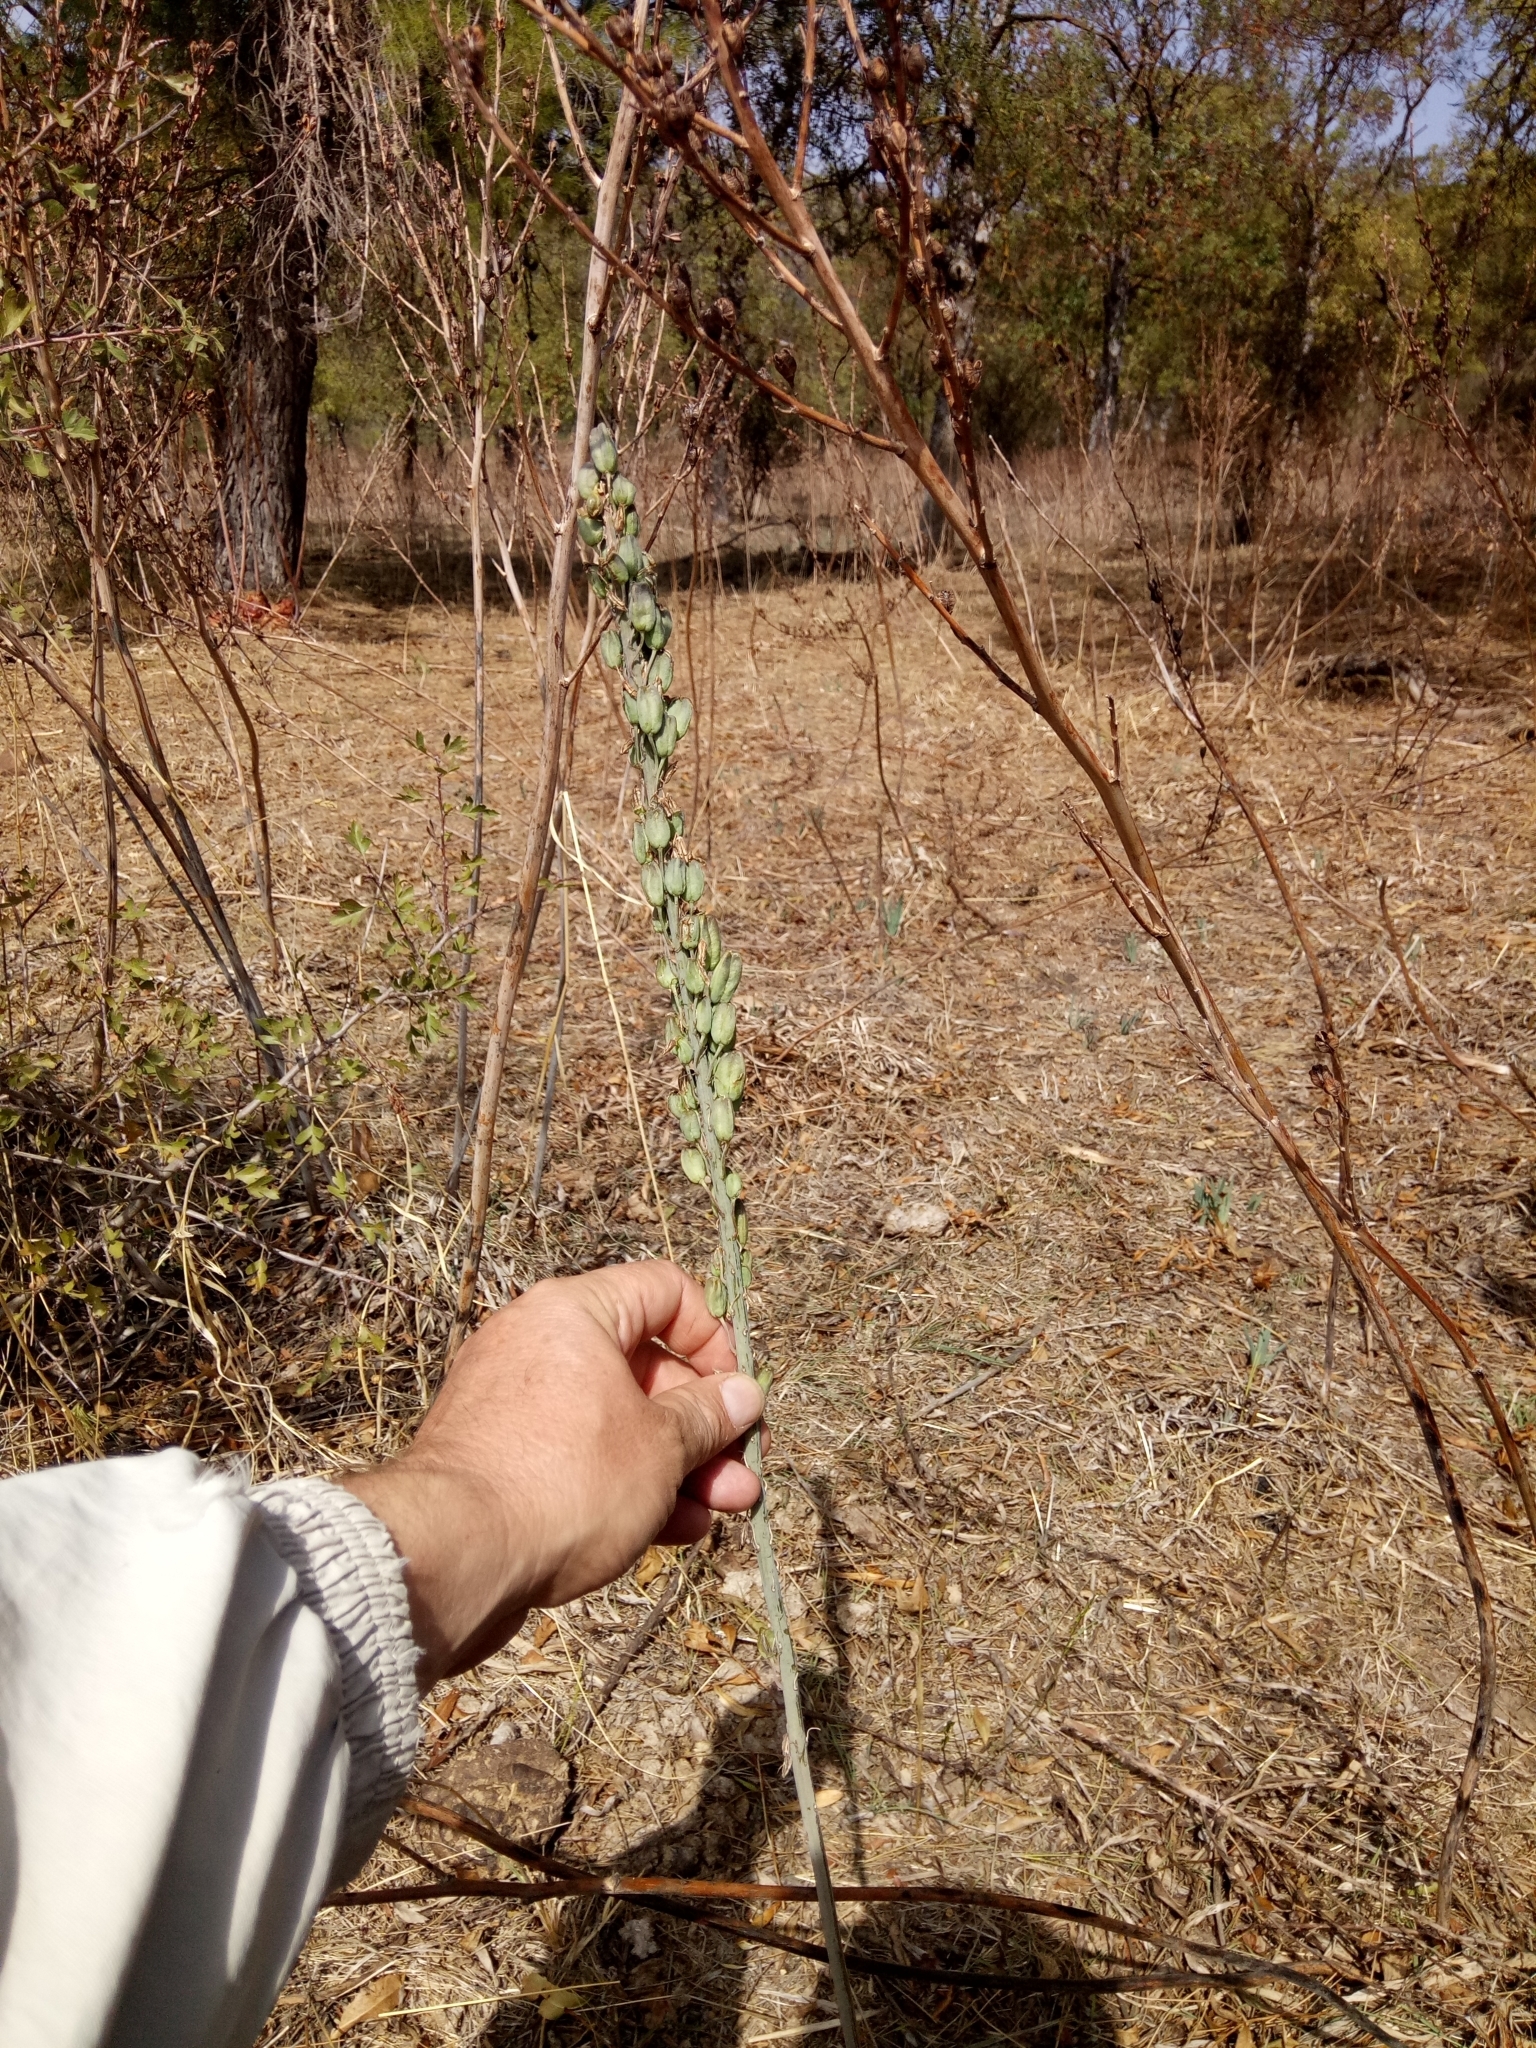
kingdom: Plantae
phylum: Tracheophyta
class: Liliopsida
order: Asparagales
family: Asparagaceae
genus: Drimia
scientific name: Drimia anthericoides
